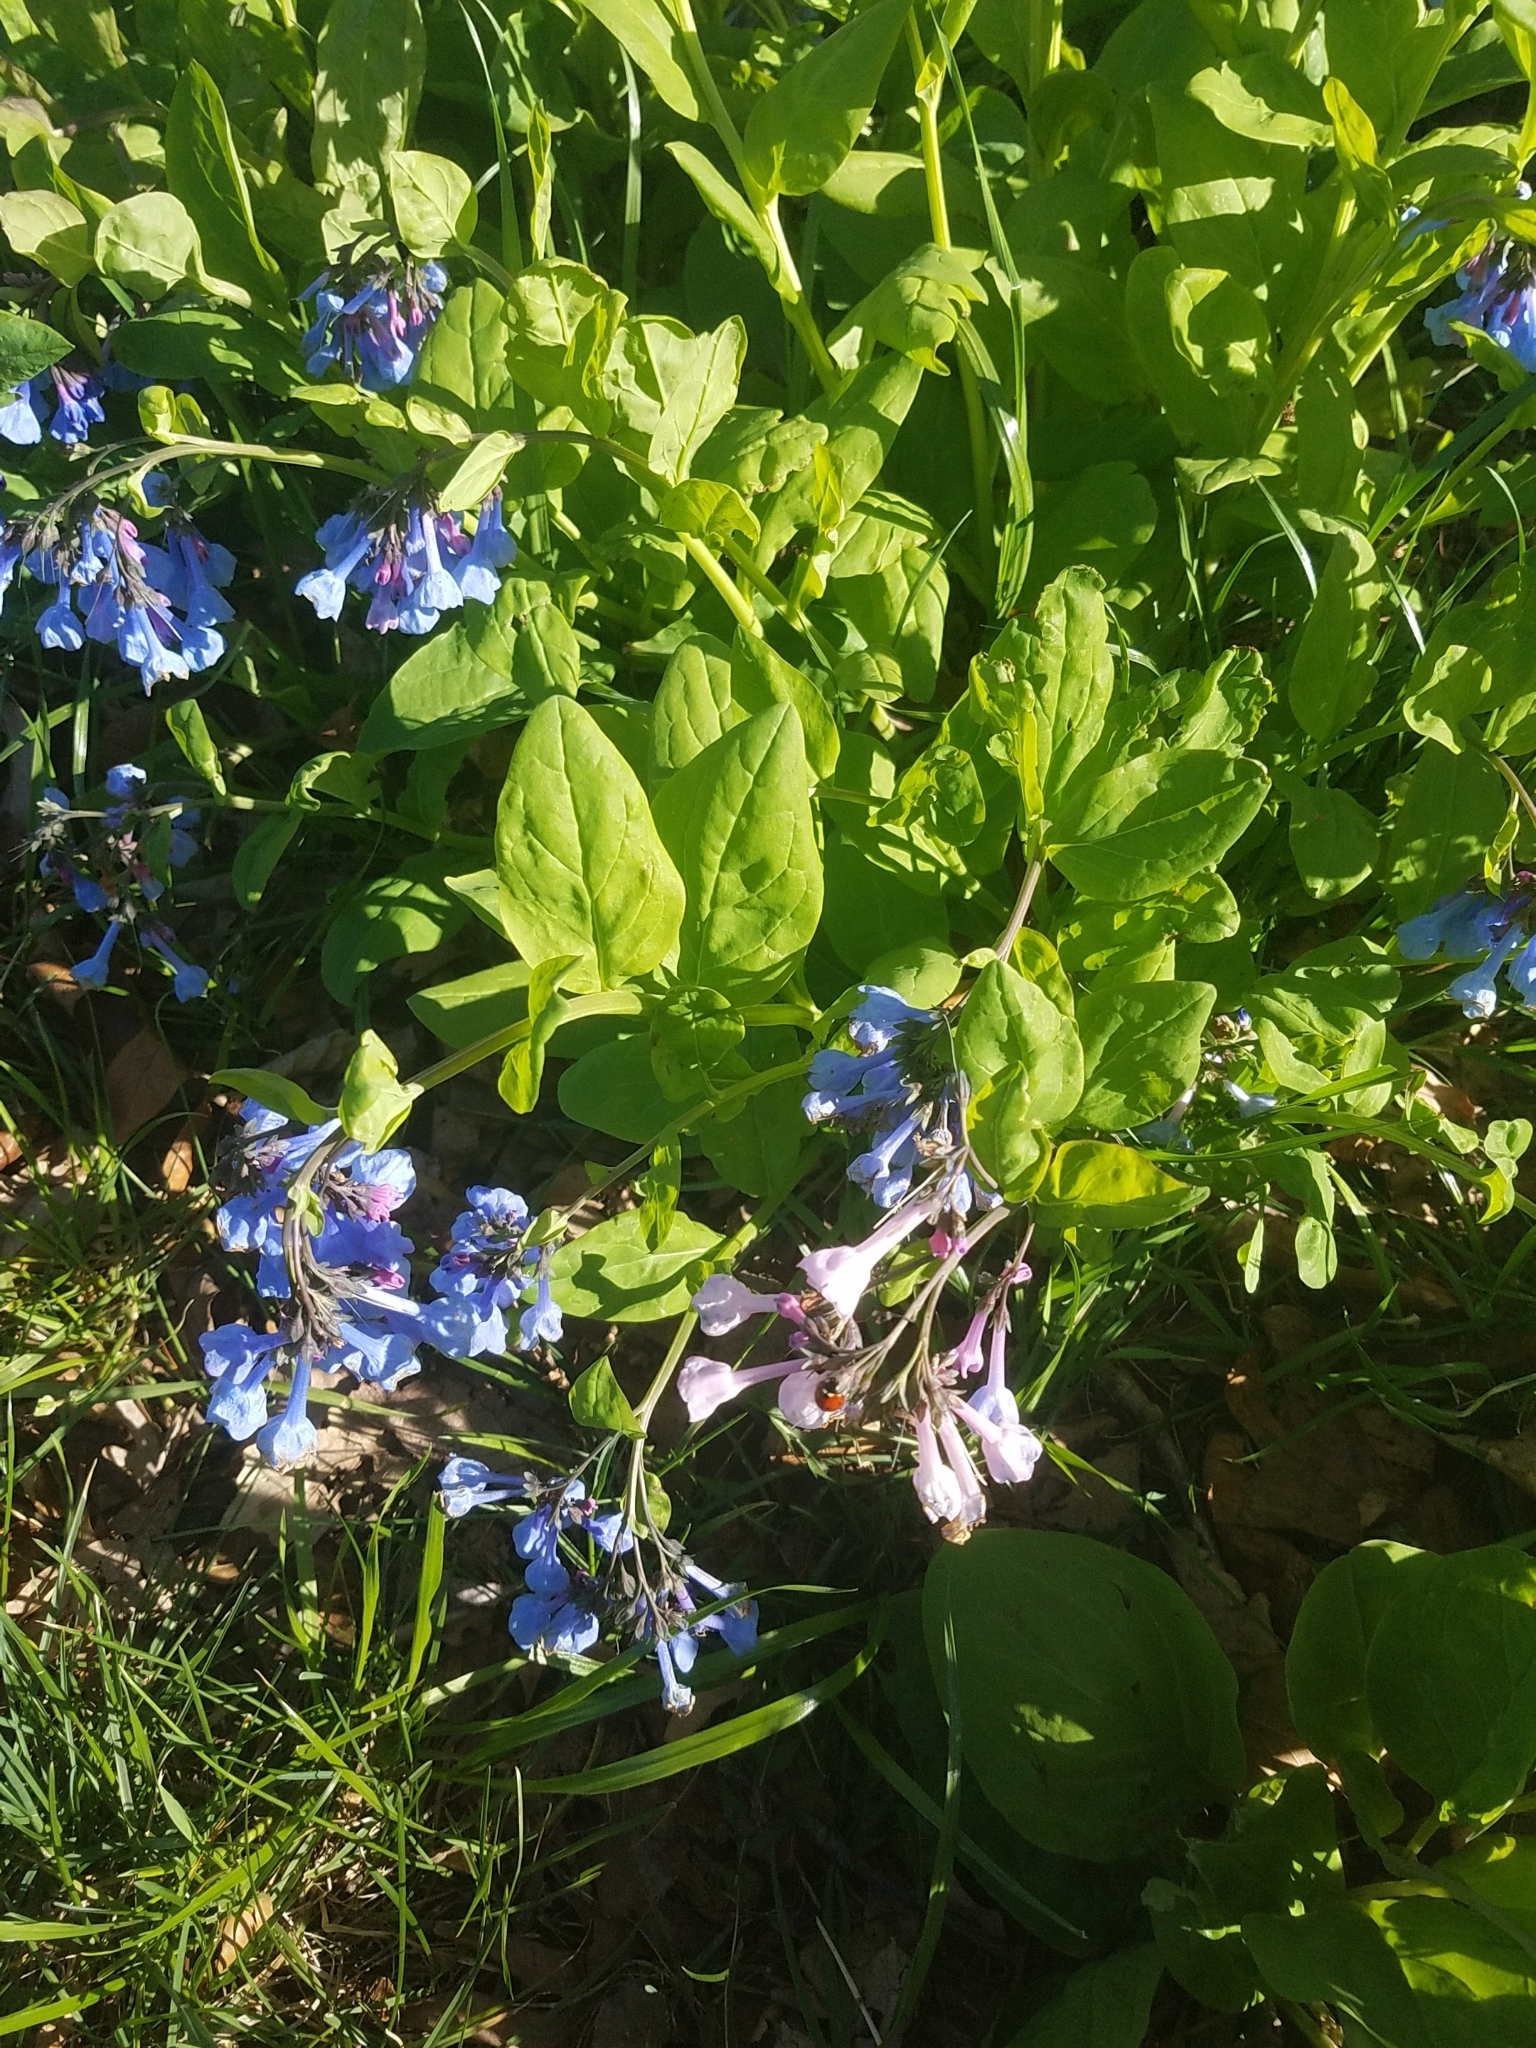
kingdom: Plantae
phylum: Tracheophyta
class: Magnoliopsida
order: Boraginales
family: Boraginaceae
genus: Mertensia
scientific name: Mertensia virginica
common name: Virginia bluebells
